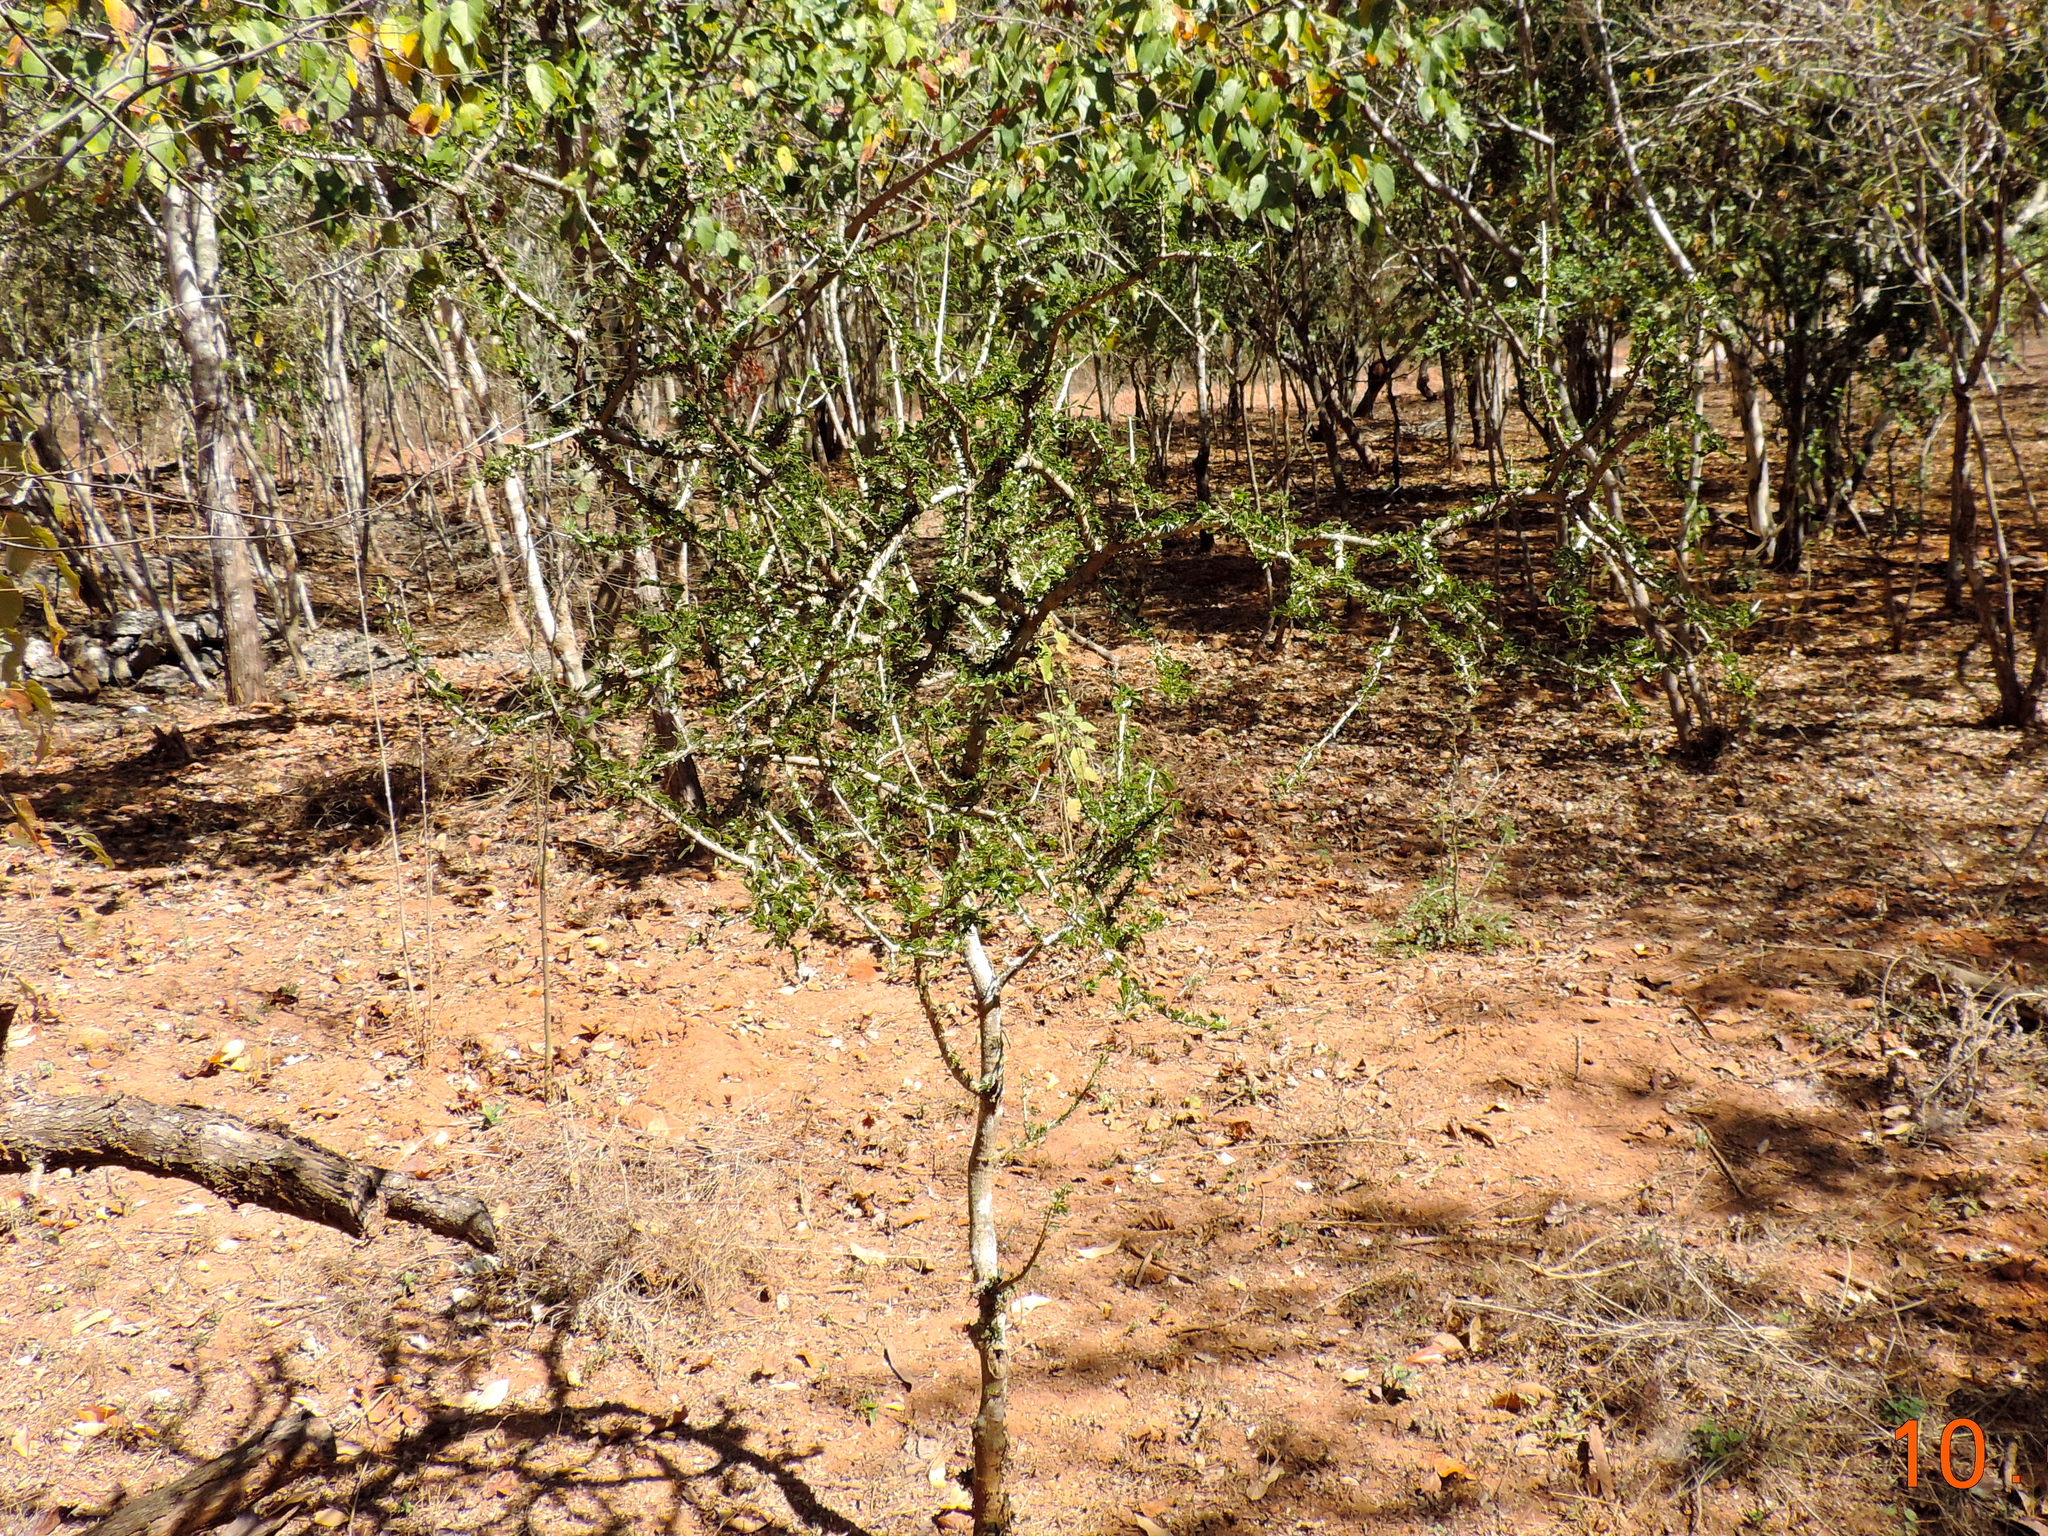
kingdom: Plantae
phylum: Tracheophyta
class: Magnoliopsida
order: Zygophyllales
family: Zygophyllaceae
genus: Guaiacum
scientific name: Guaiacum coulteri
